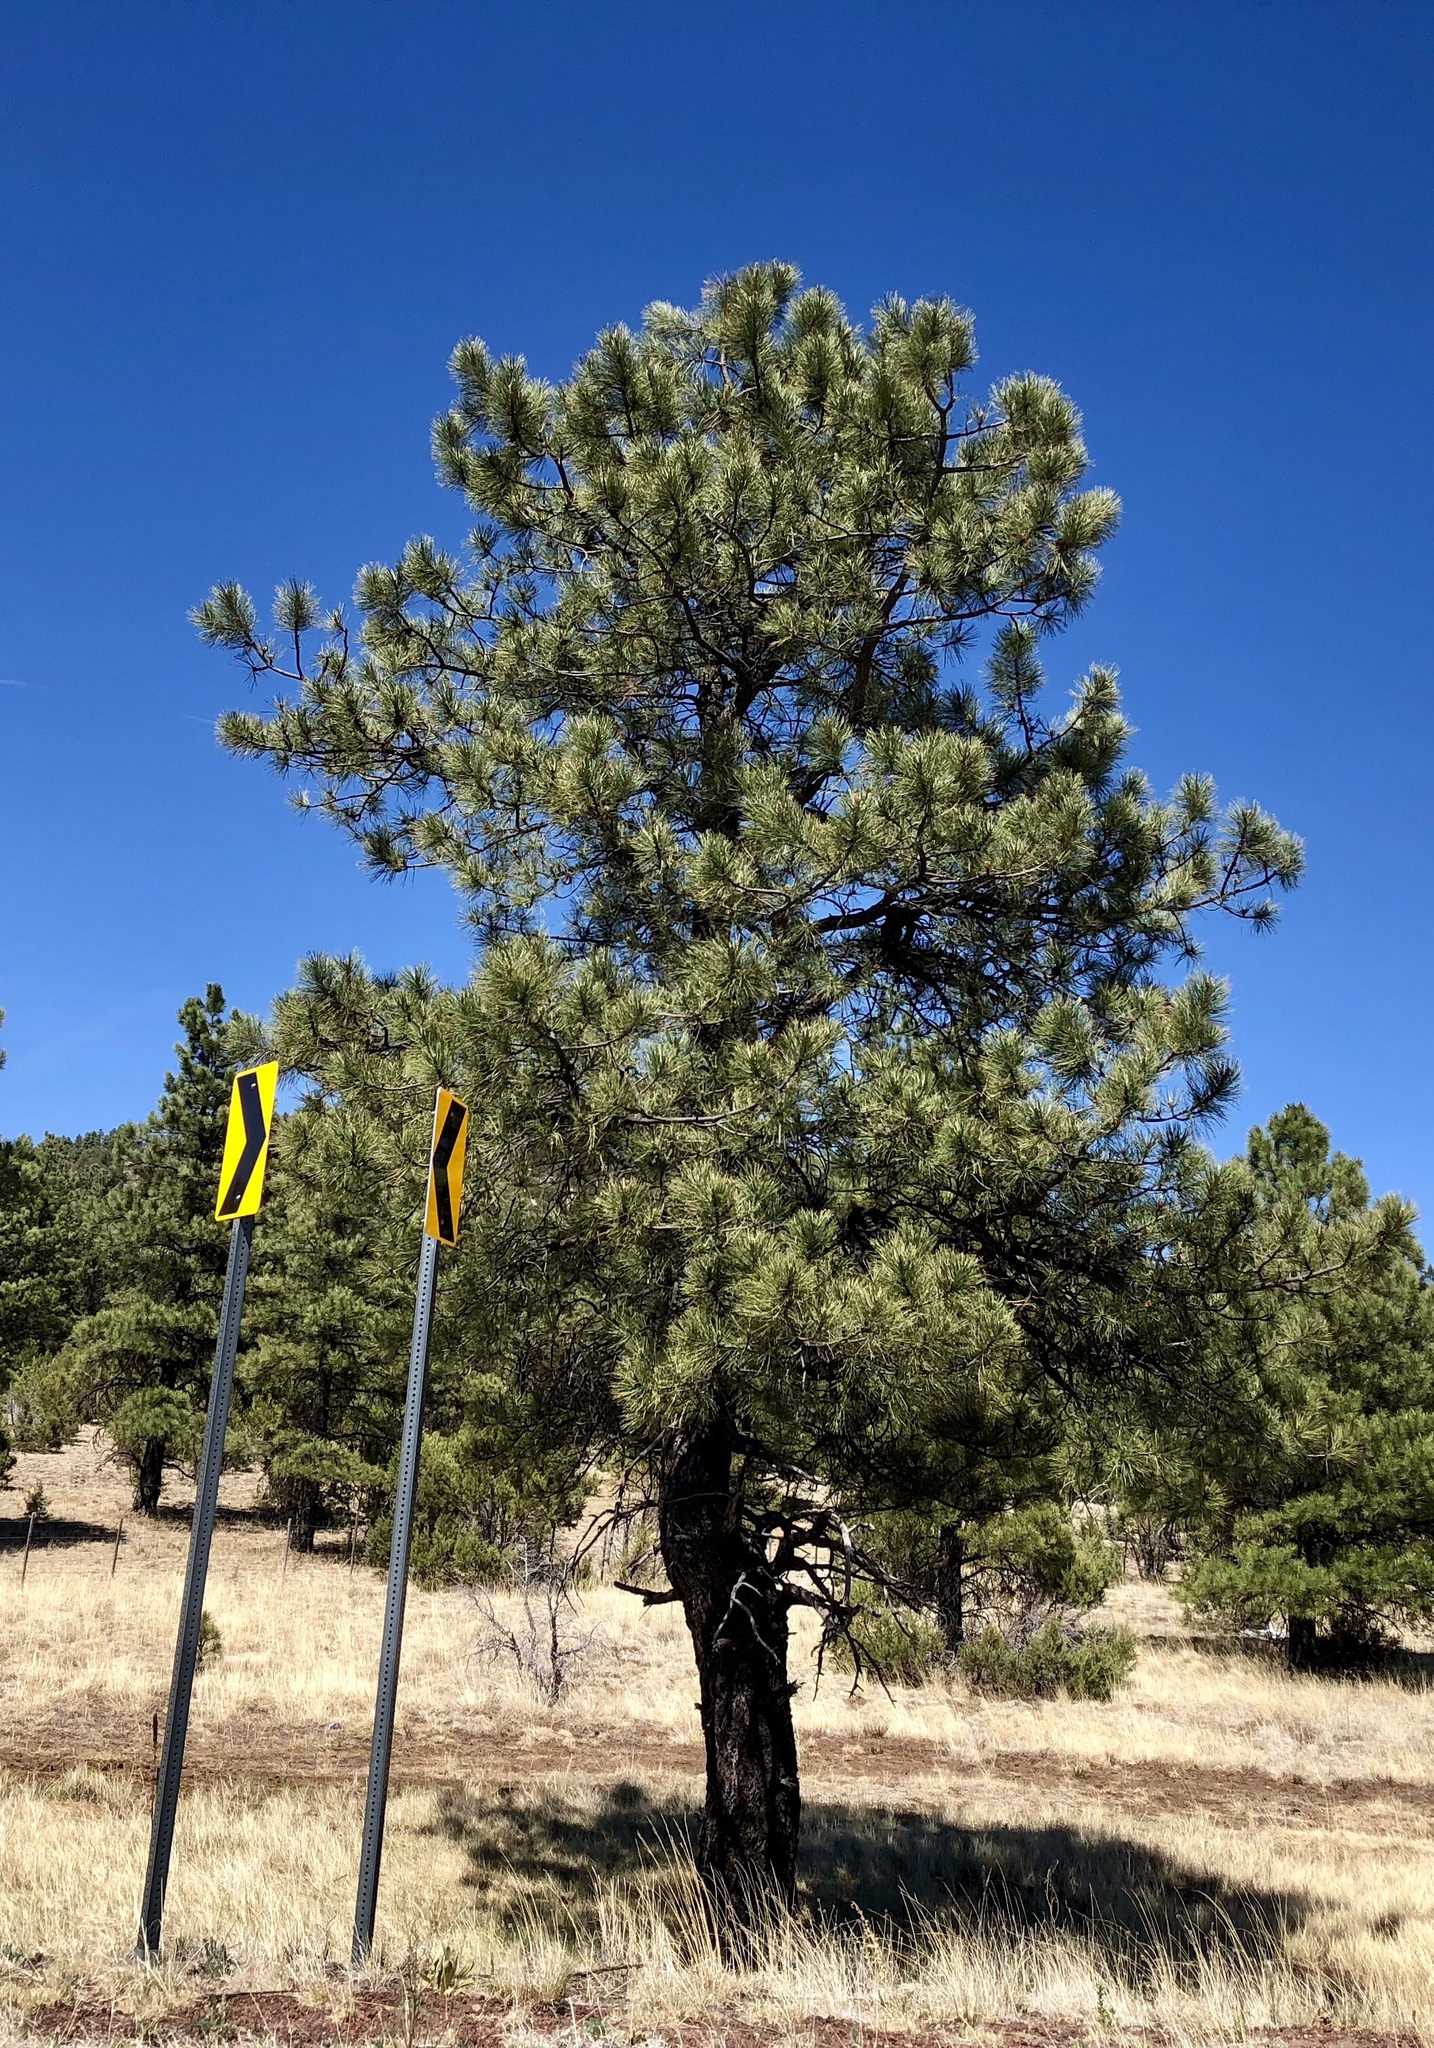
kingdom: Plantae
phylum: Tracheophyta
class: Pinopsida
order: Pinales
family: Pinaceae
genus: Pinus
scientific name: Pinus ponderosa
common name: Western yellow-pine
